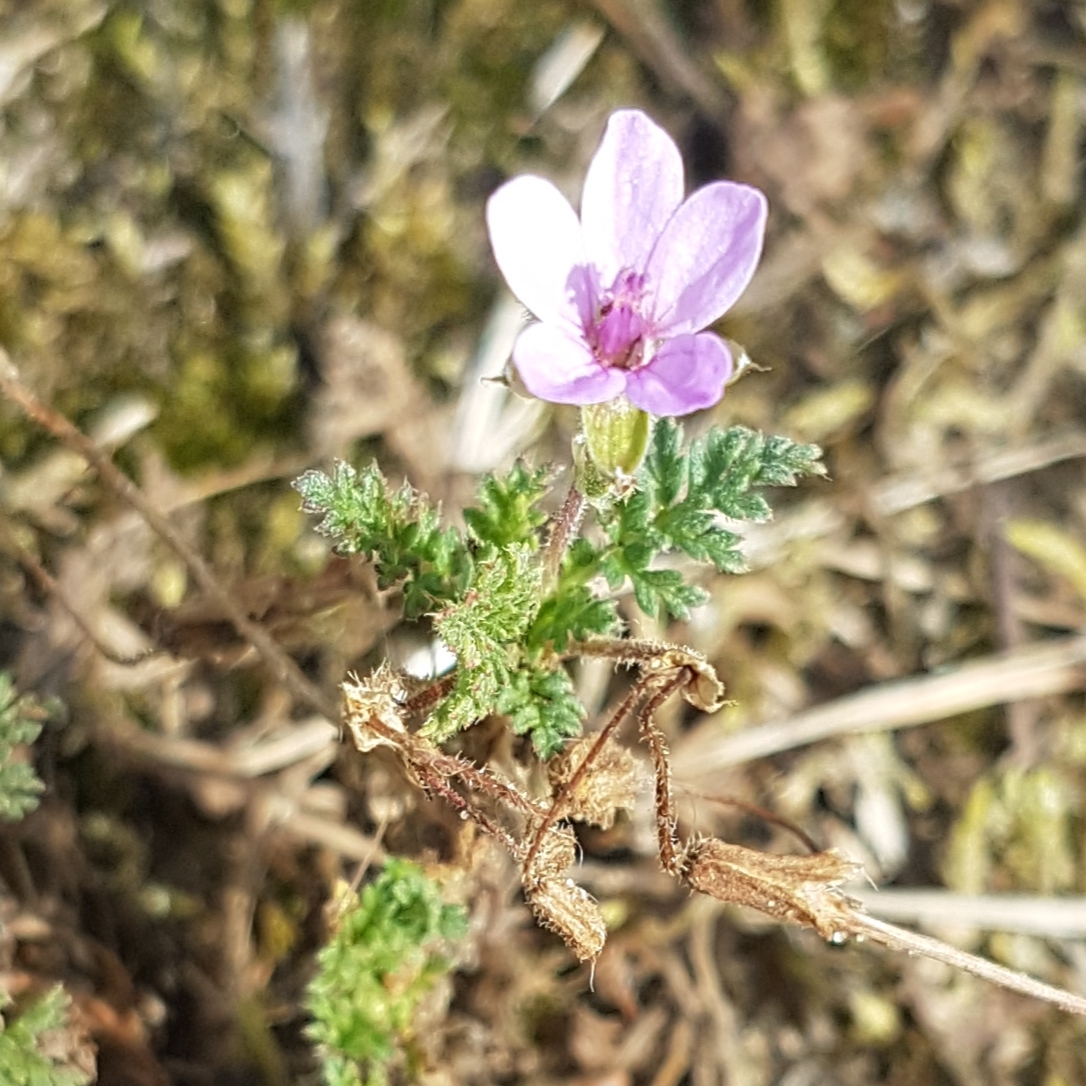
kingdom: Plantae
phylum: Tracheophyta
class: Magnoliopsida
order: Geraniales
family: Geraniaceae
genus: Erodium
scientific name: Erodium cicutarium
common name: Common stork's-bill
